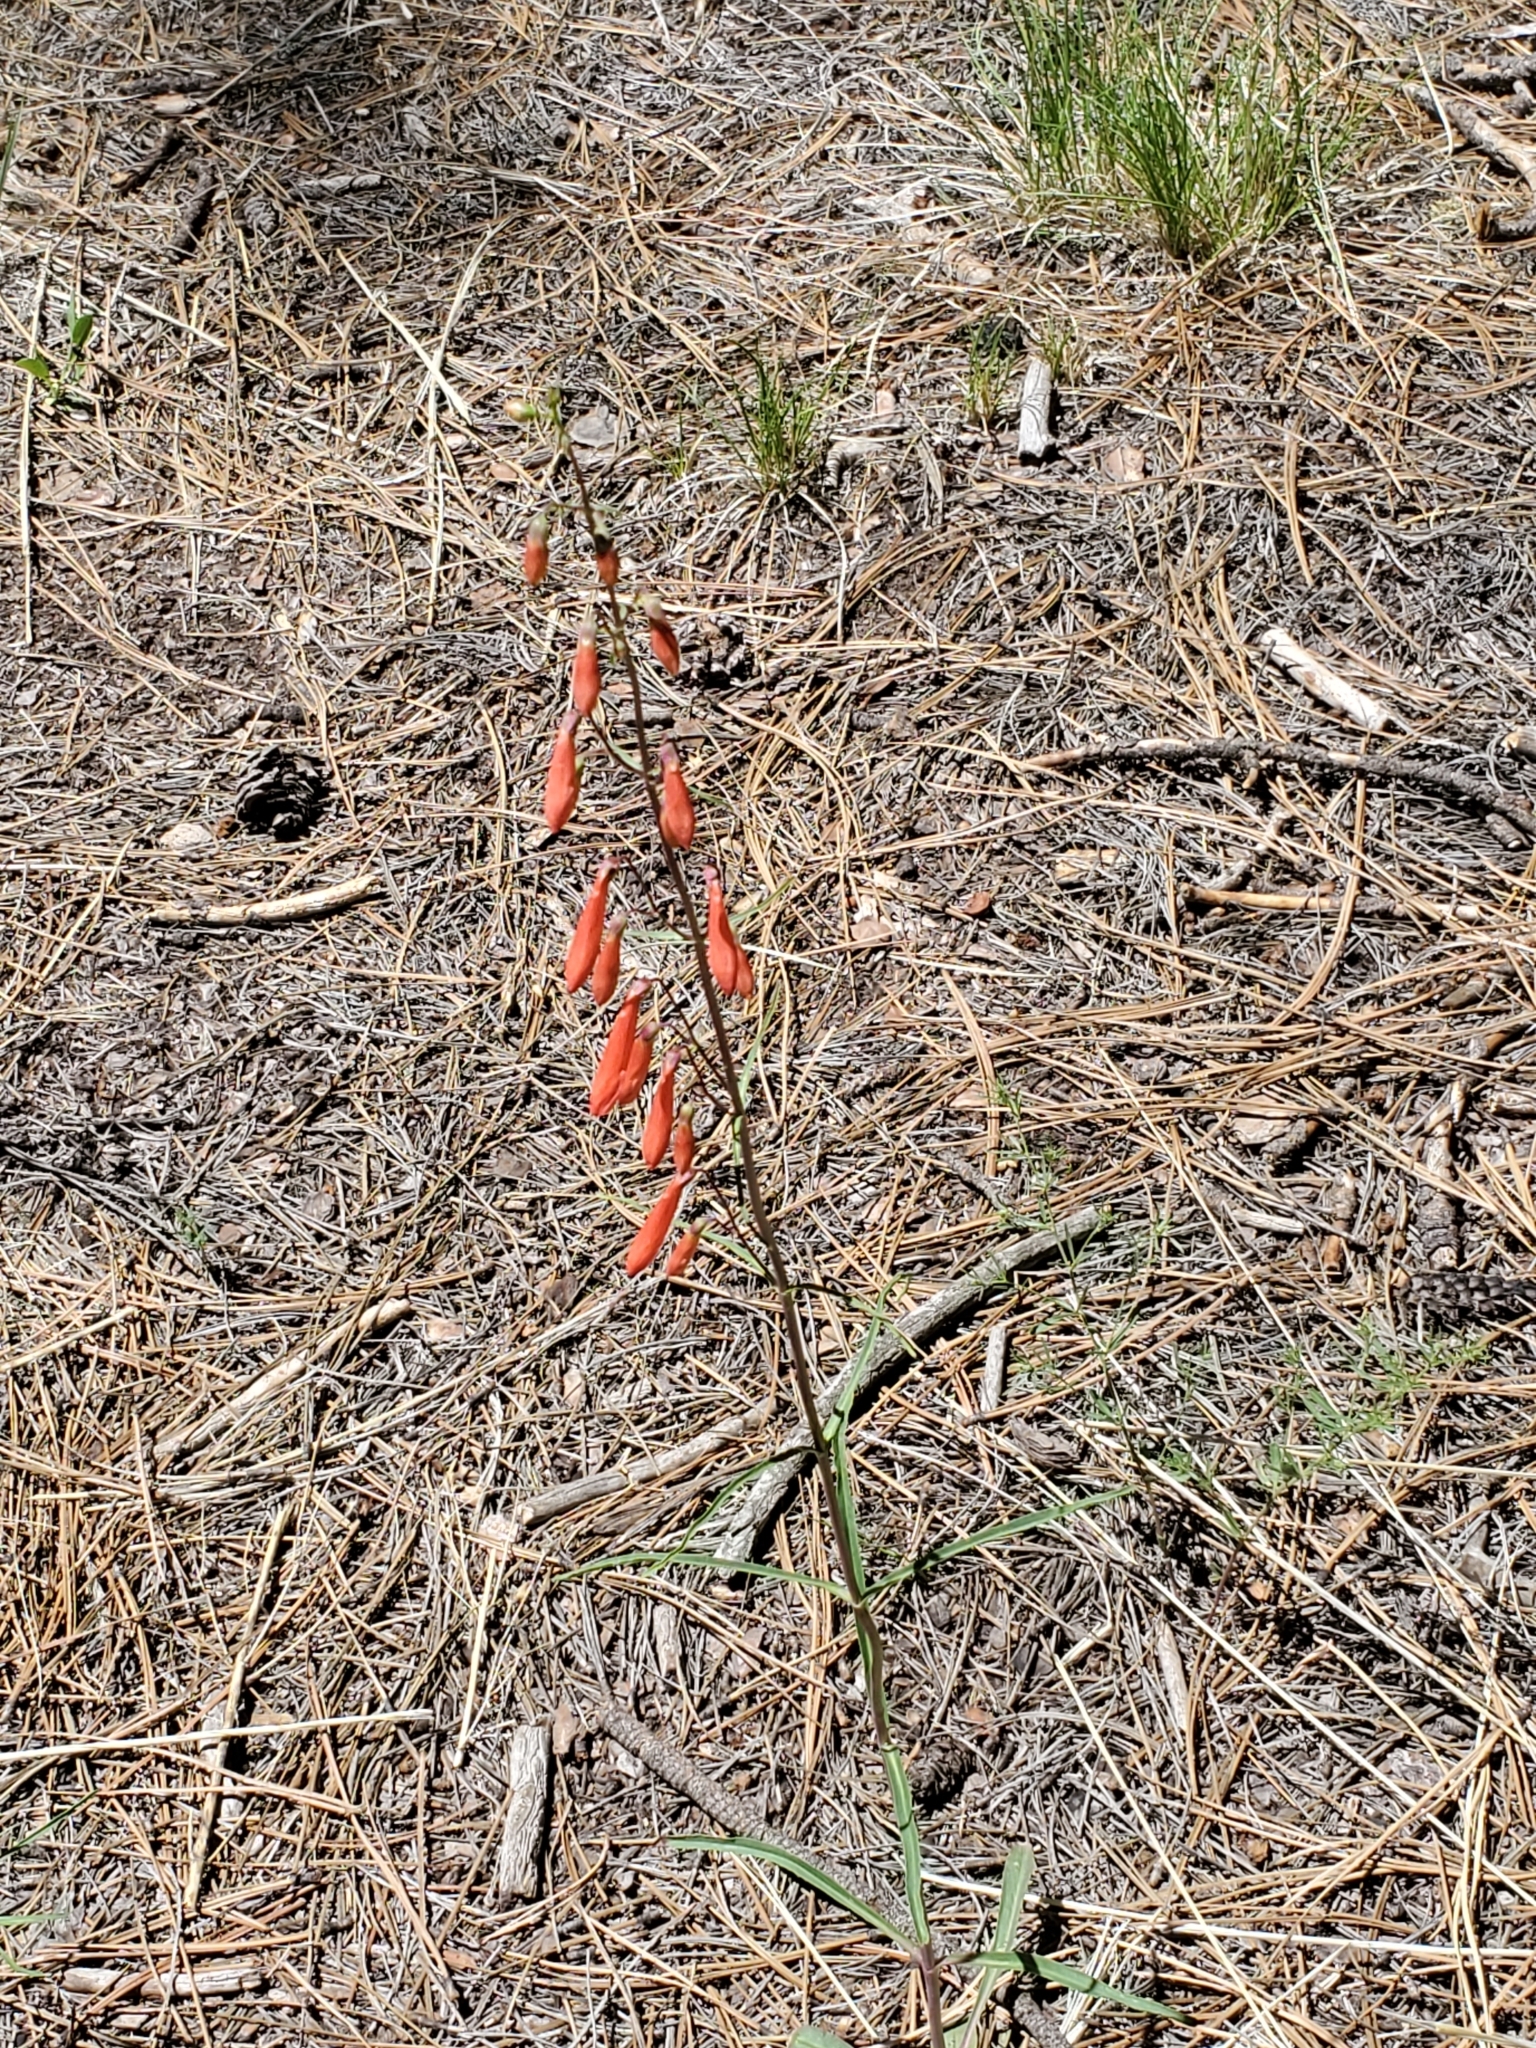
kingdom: Plantae
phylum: Tracheophyta
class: Magnoliopsida
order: Lamiales
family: Plantaginaceae
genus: Penstemon
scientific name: Penstemon barbatus
